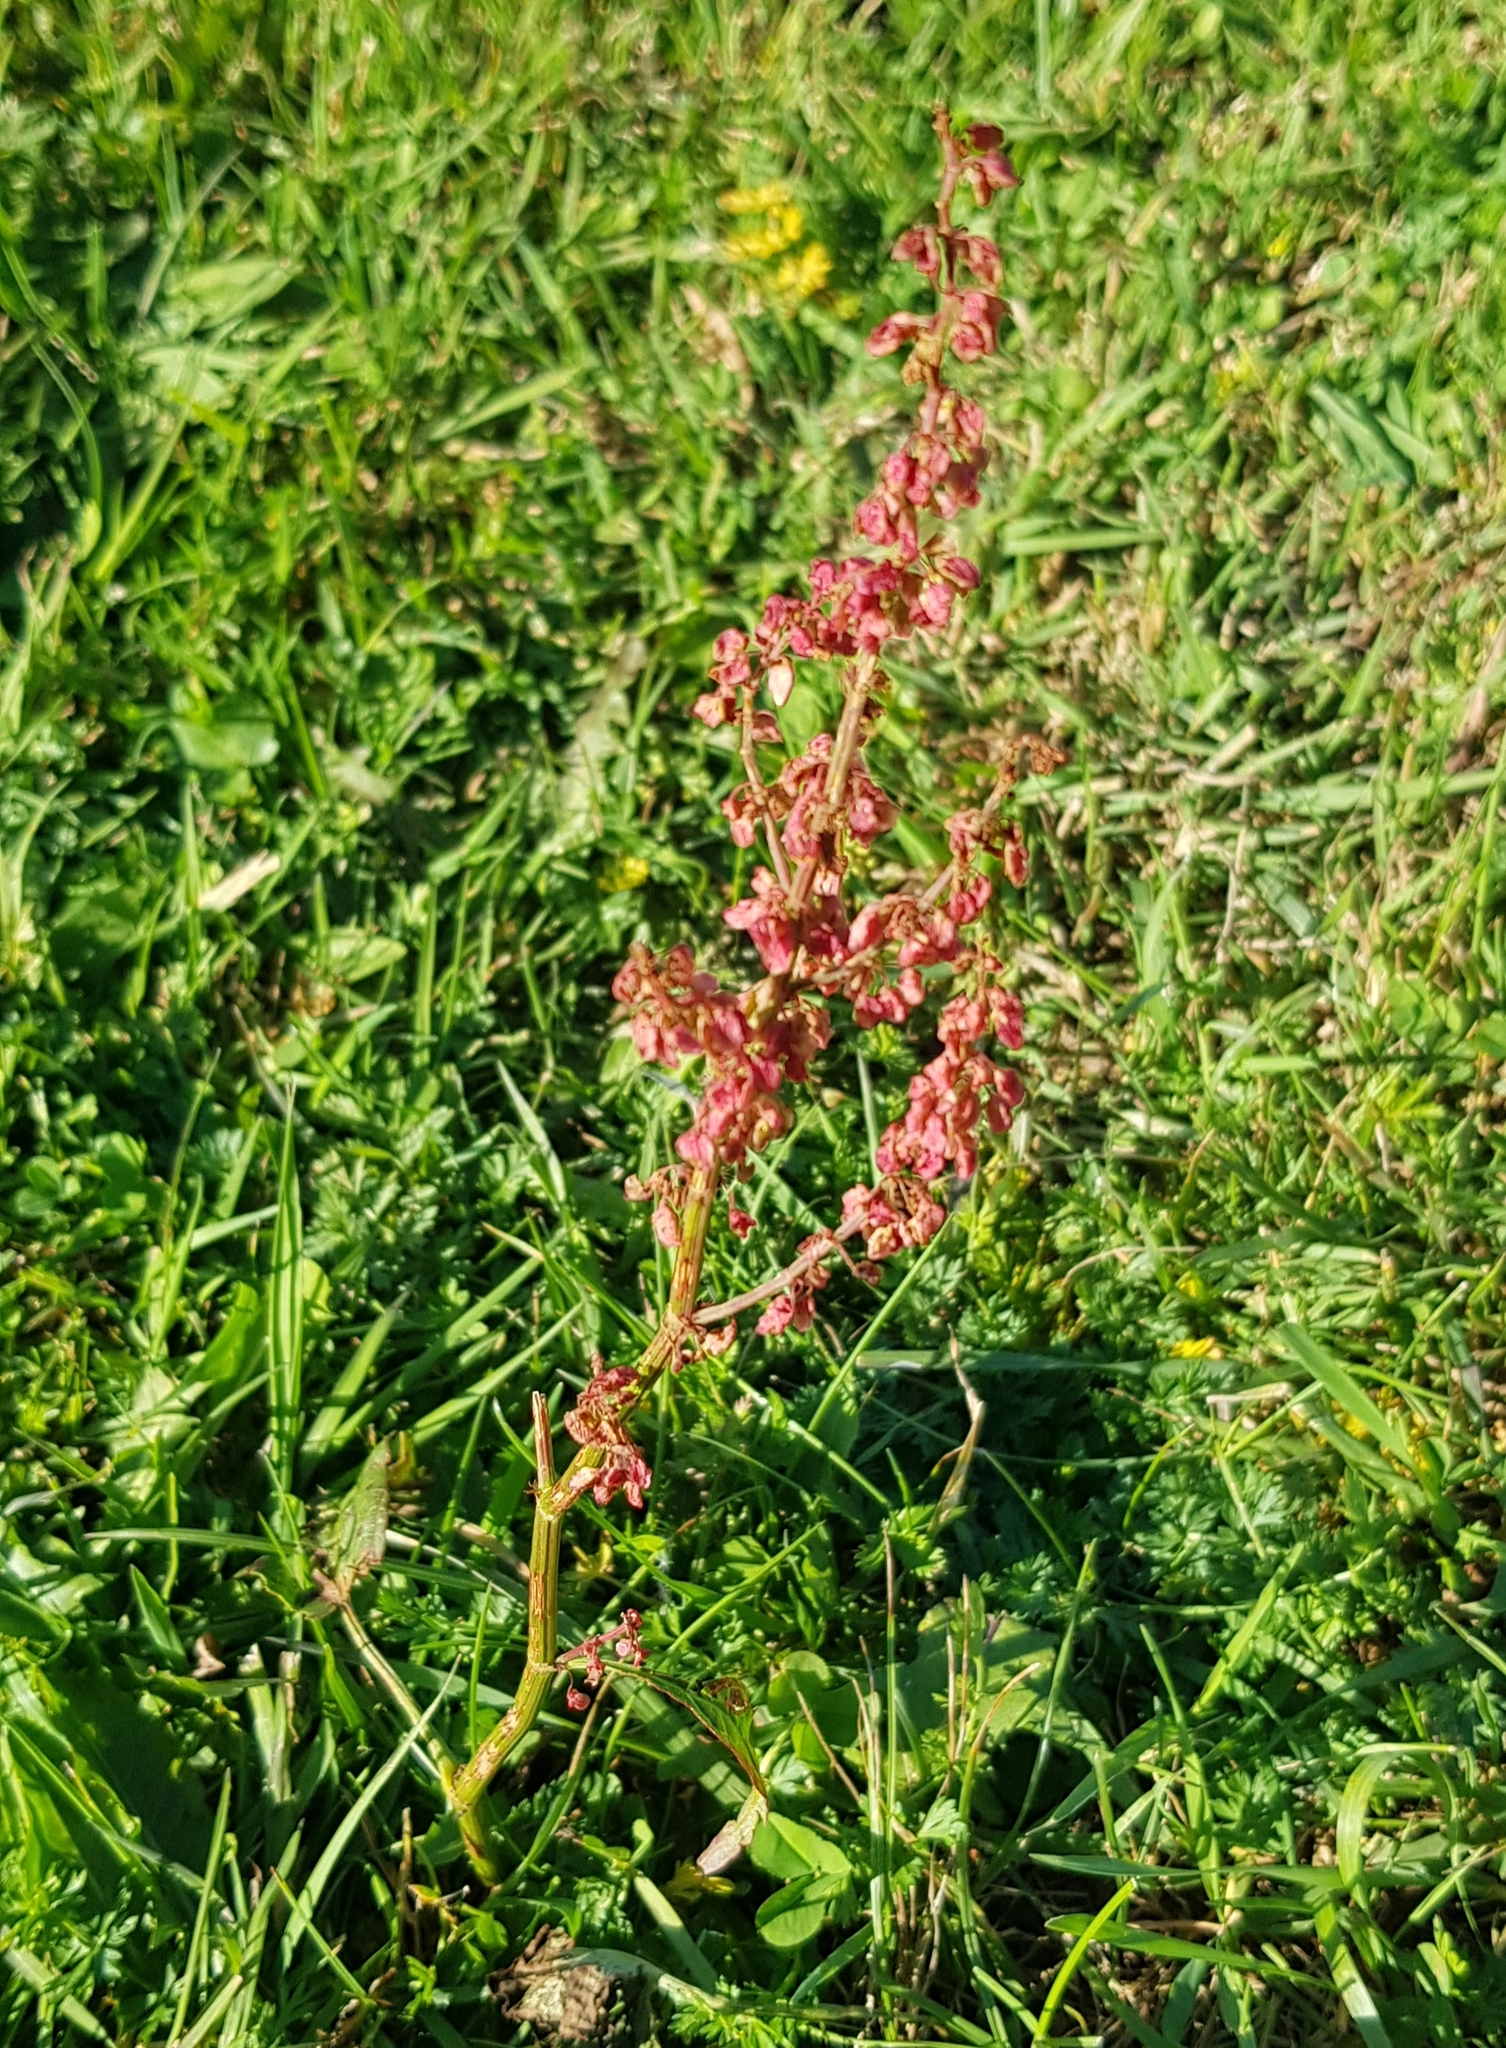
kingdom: Plantae
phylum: Tracheophyta
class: Magnoliopsida
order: Caryophyllales
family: Polygonaceae
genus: Rumex
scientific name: Rumex acetosa
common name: Garden sorrel
